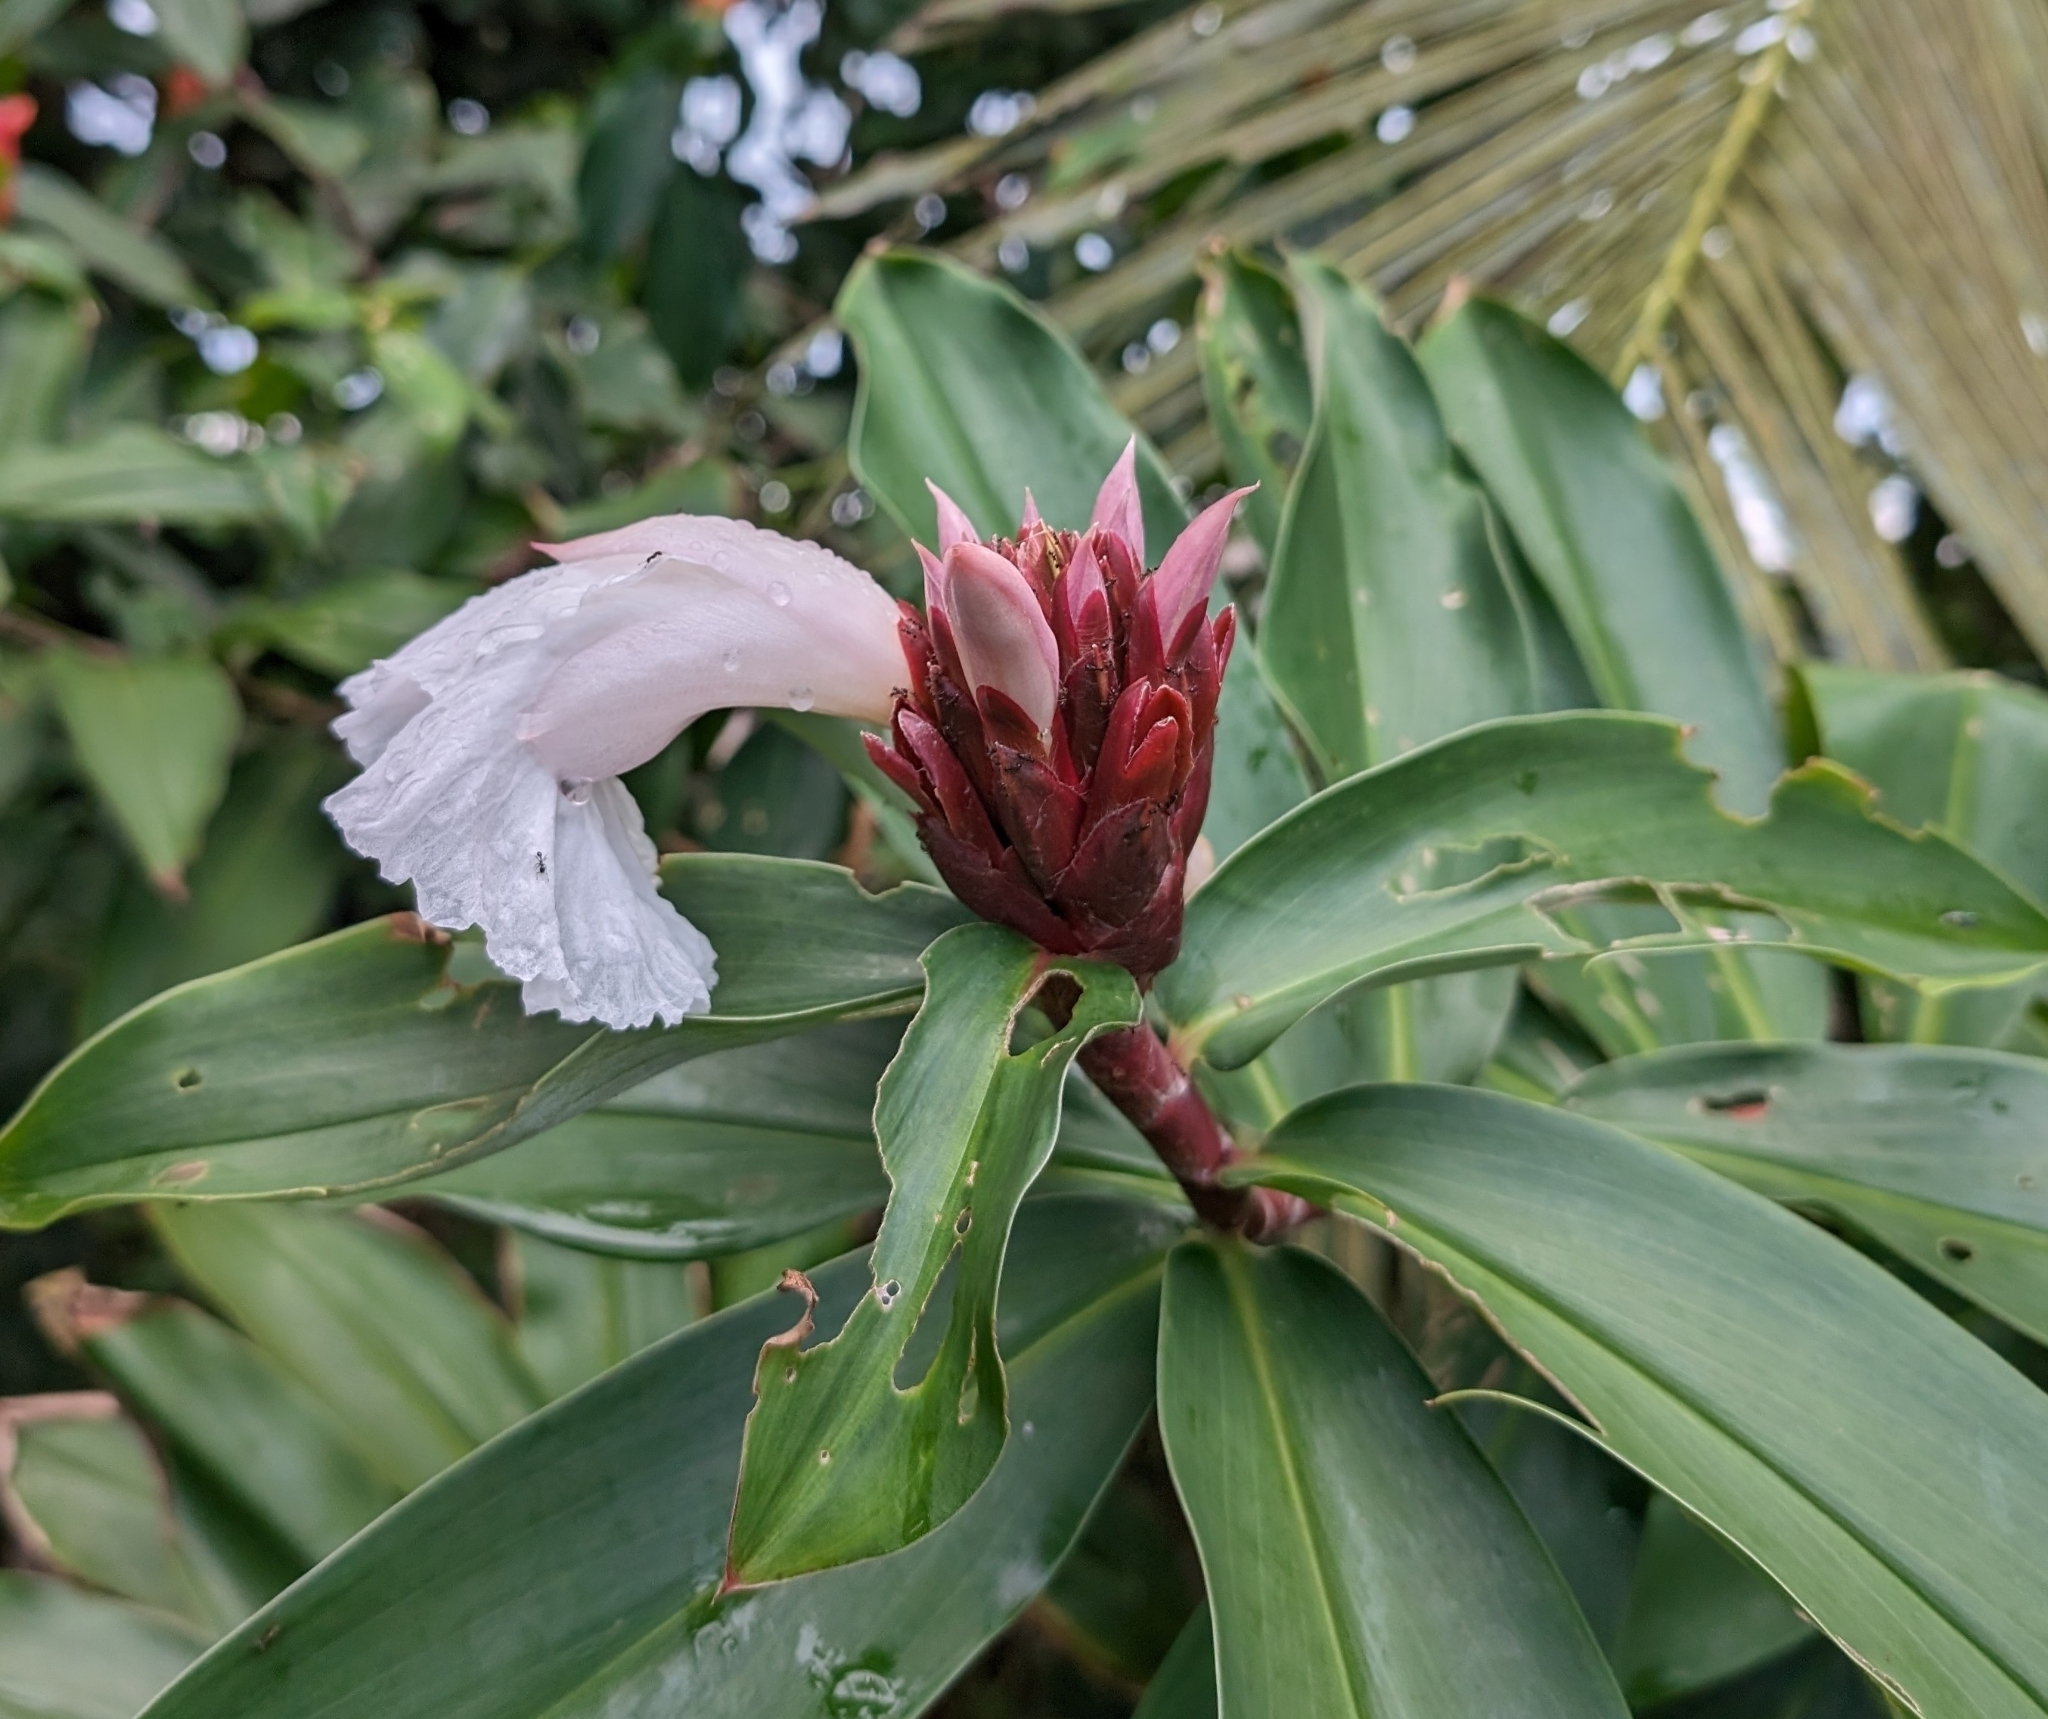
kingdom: Plantae
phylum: Tracheophyta
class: Liliopsida
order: Zingiberales
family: Costaceae
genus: Hellenia
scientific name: Hellenia speciosa
